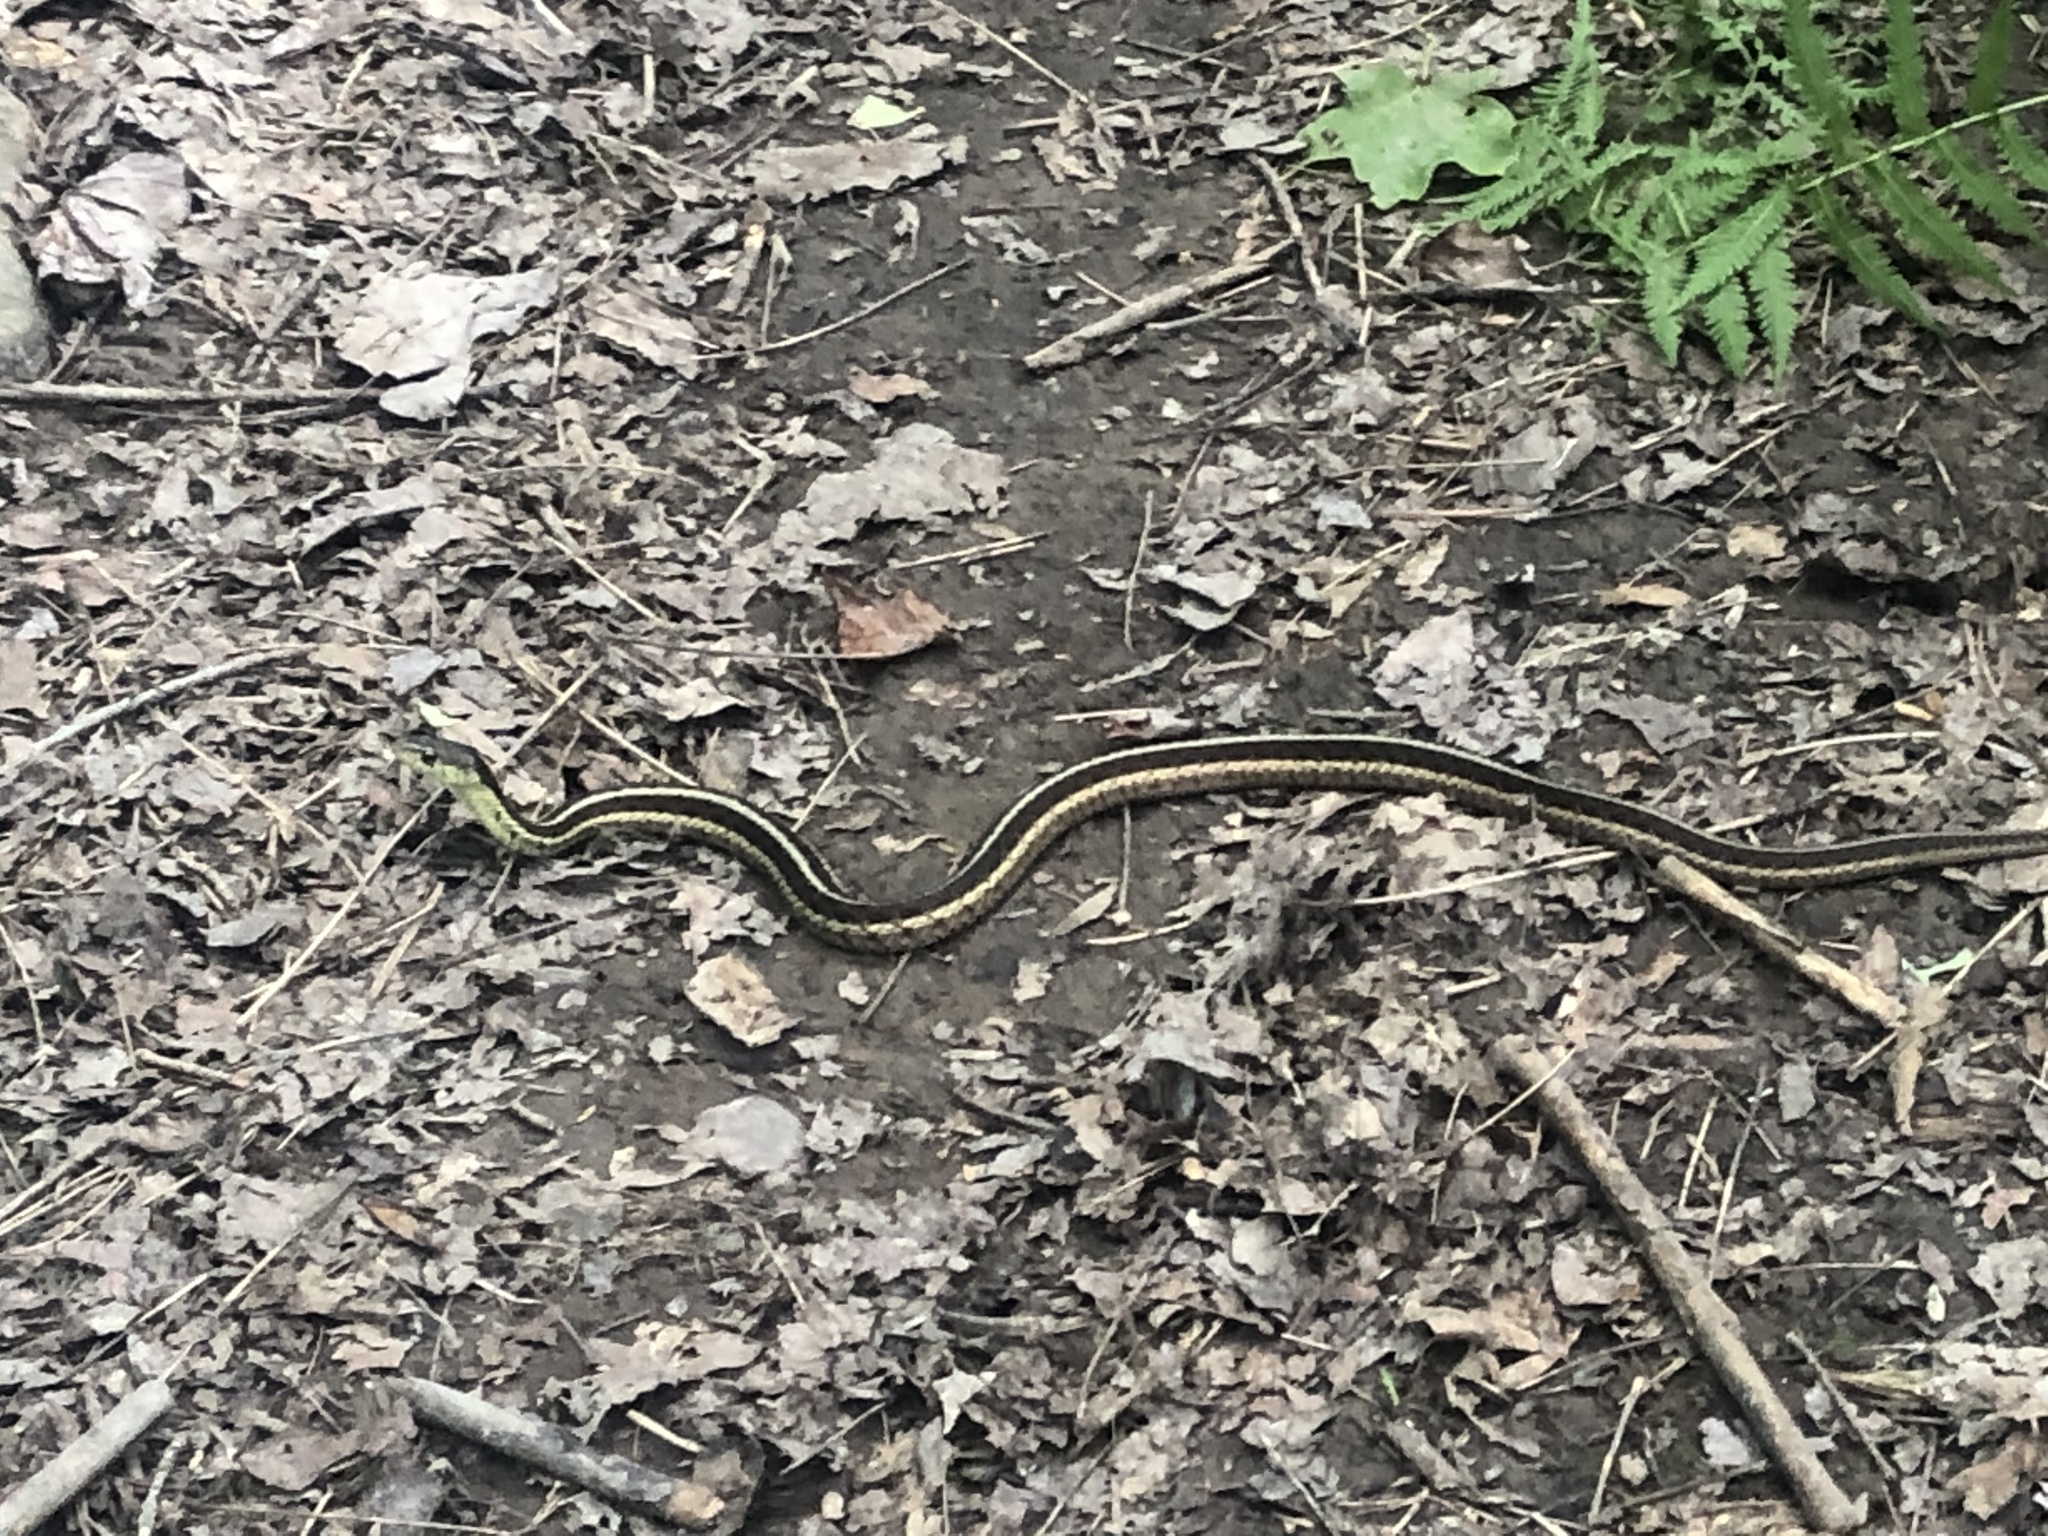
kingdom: Animalia
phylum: Chordata
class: Squamata
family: Colubridae
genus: Thamnophis
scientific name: Thamnophis sirtalis
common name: Common garter snake
